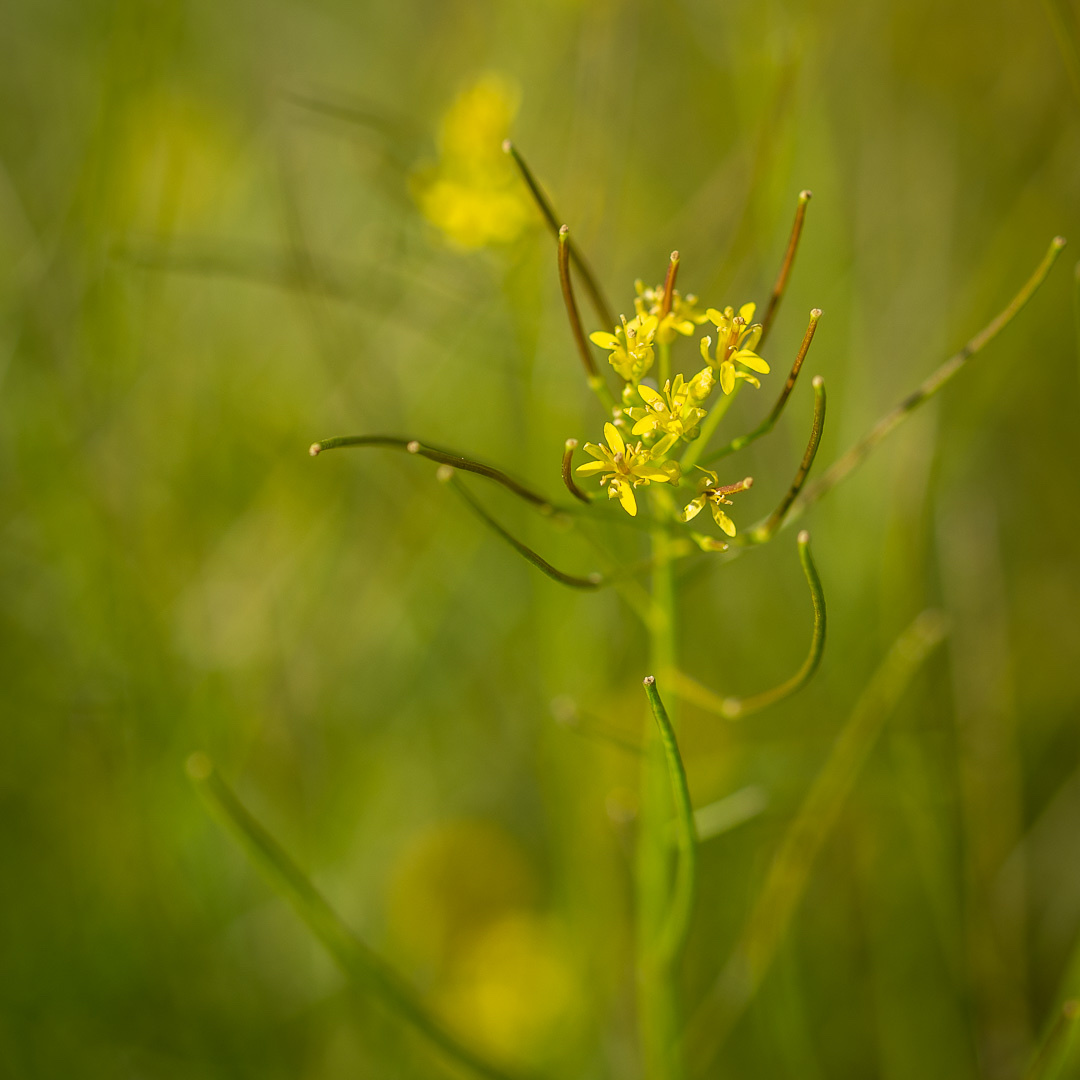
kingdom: Plantae
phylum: Tracheophyta
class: Magnoliopsida
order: Brassicales
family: Brassicaceae
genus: Sisymbrium
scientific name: Sisymbrium irio
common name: London rocket
